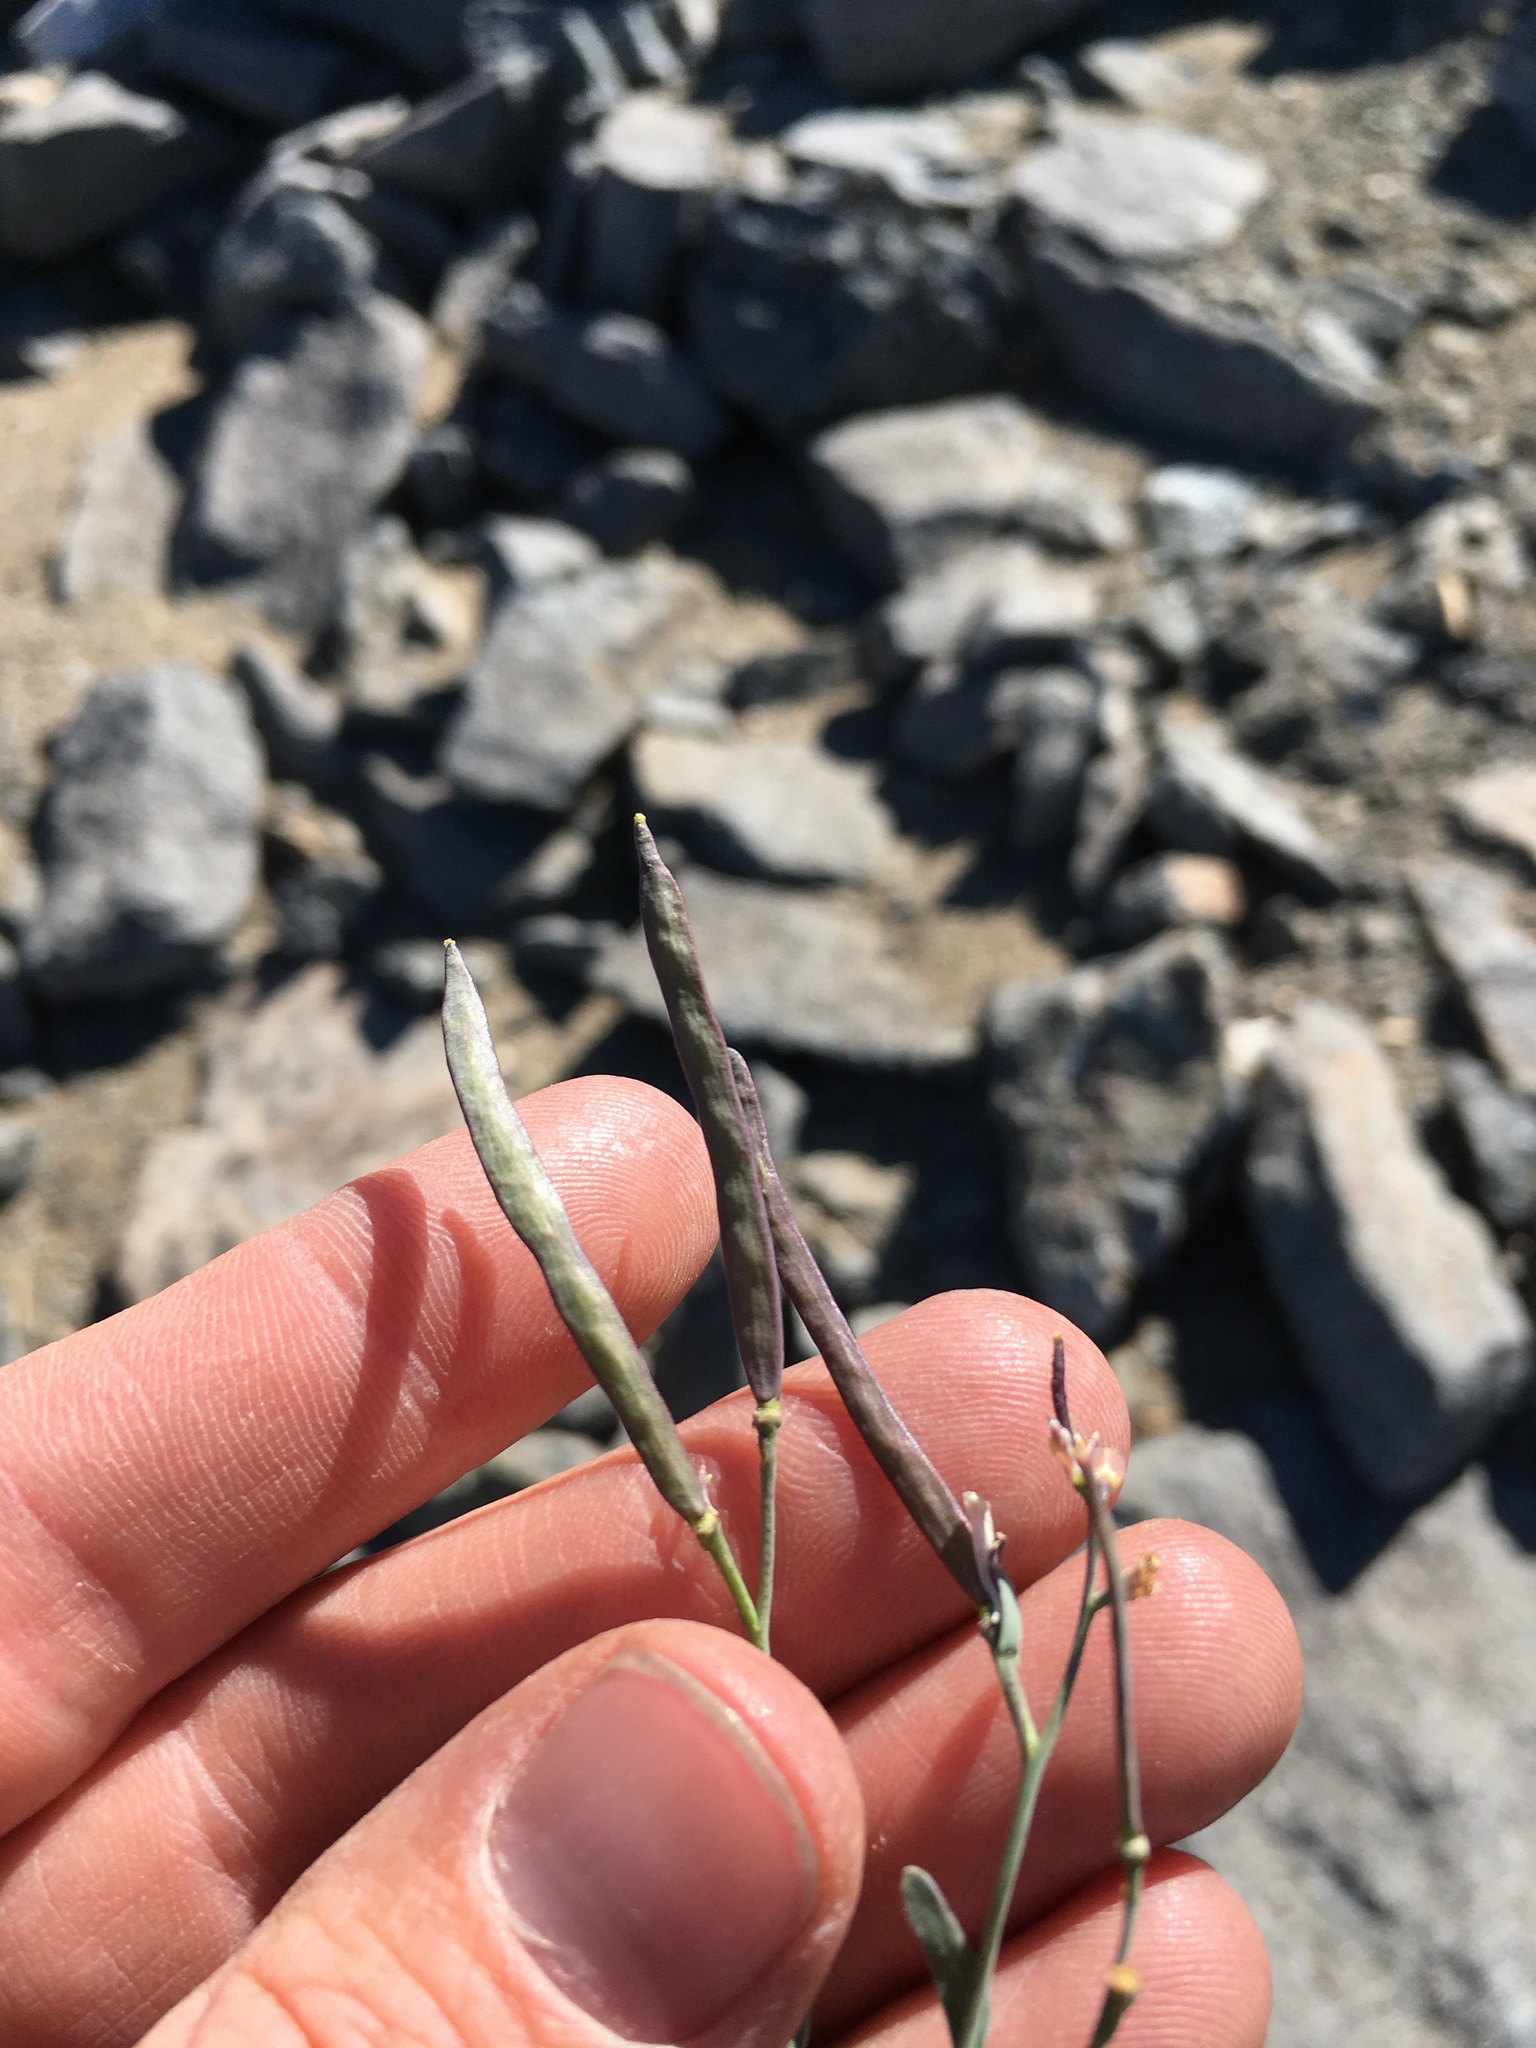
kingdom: Plantae
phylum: Tracheophyta
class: Magnoliopsida
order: Brassicales
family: Brassicaceae
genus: Boechera
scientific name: Boechera howellii
